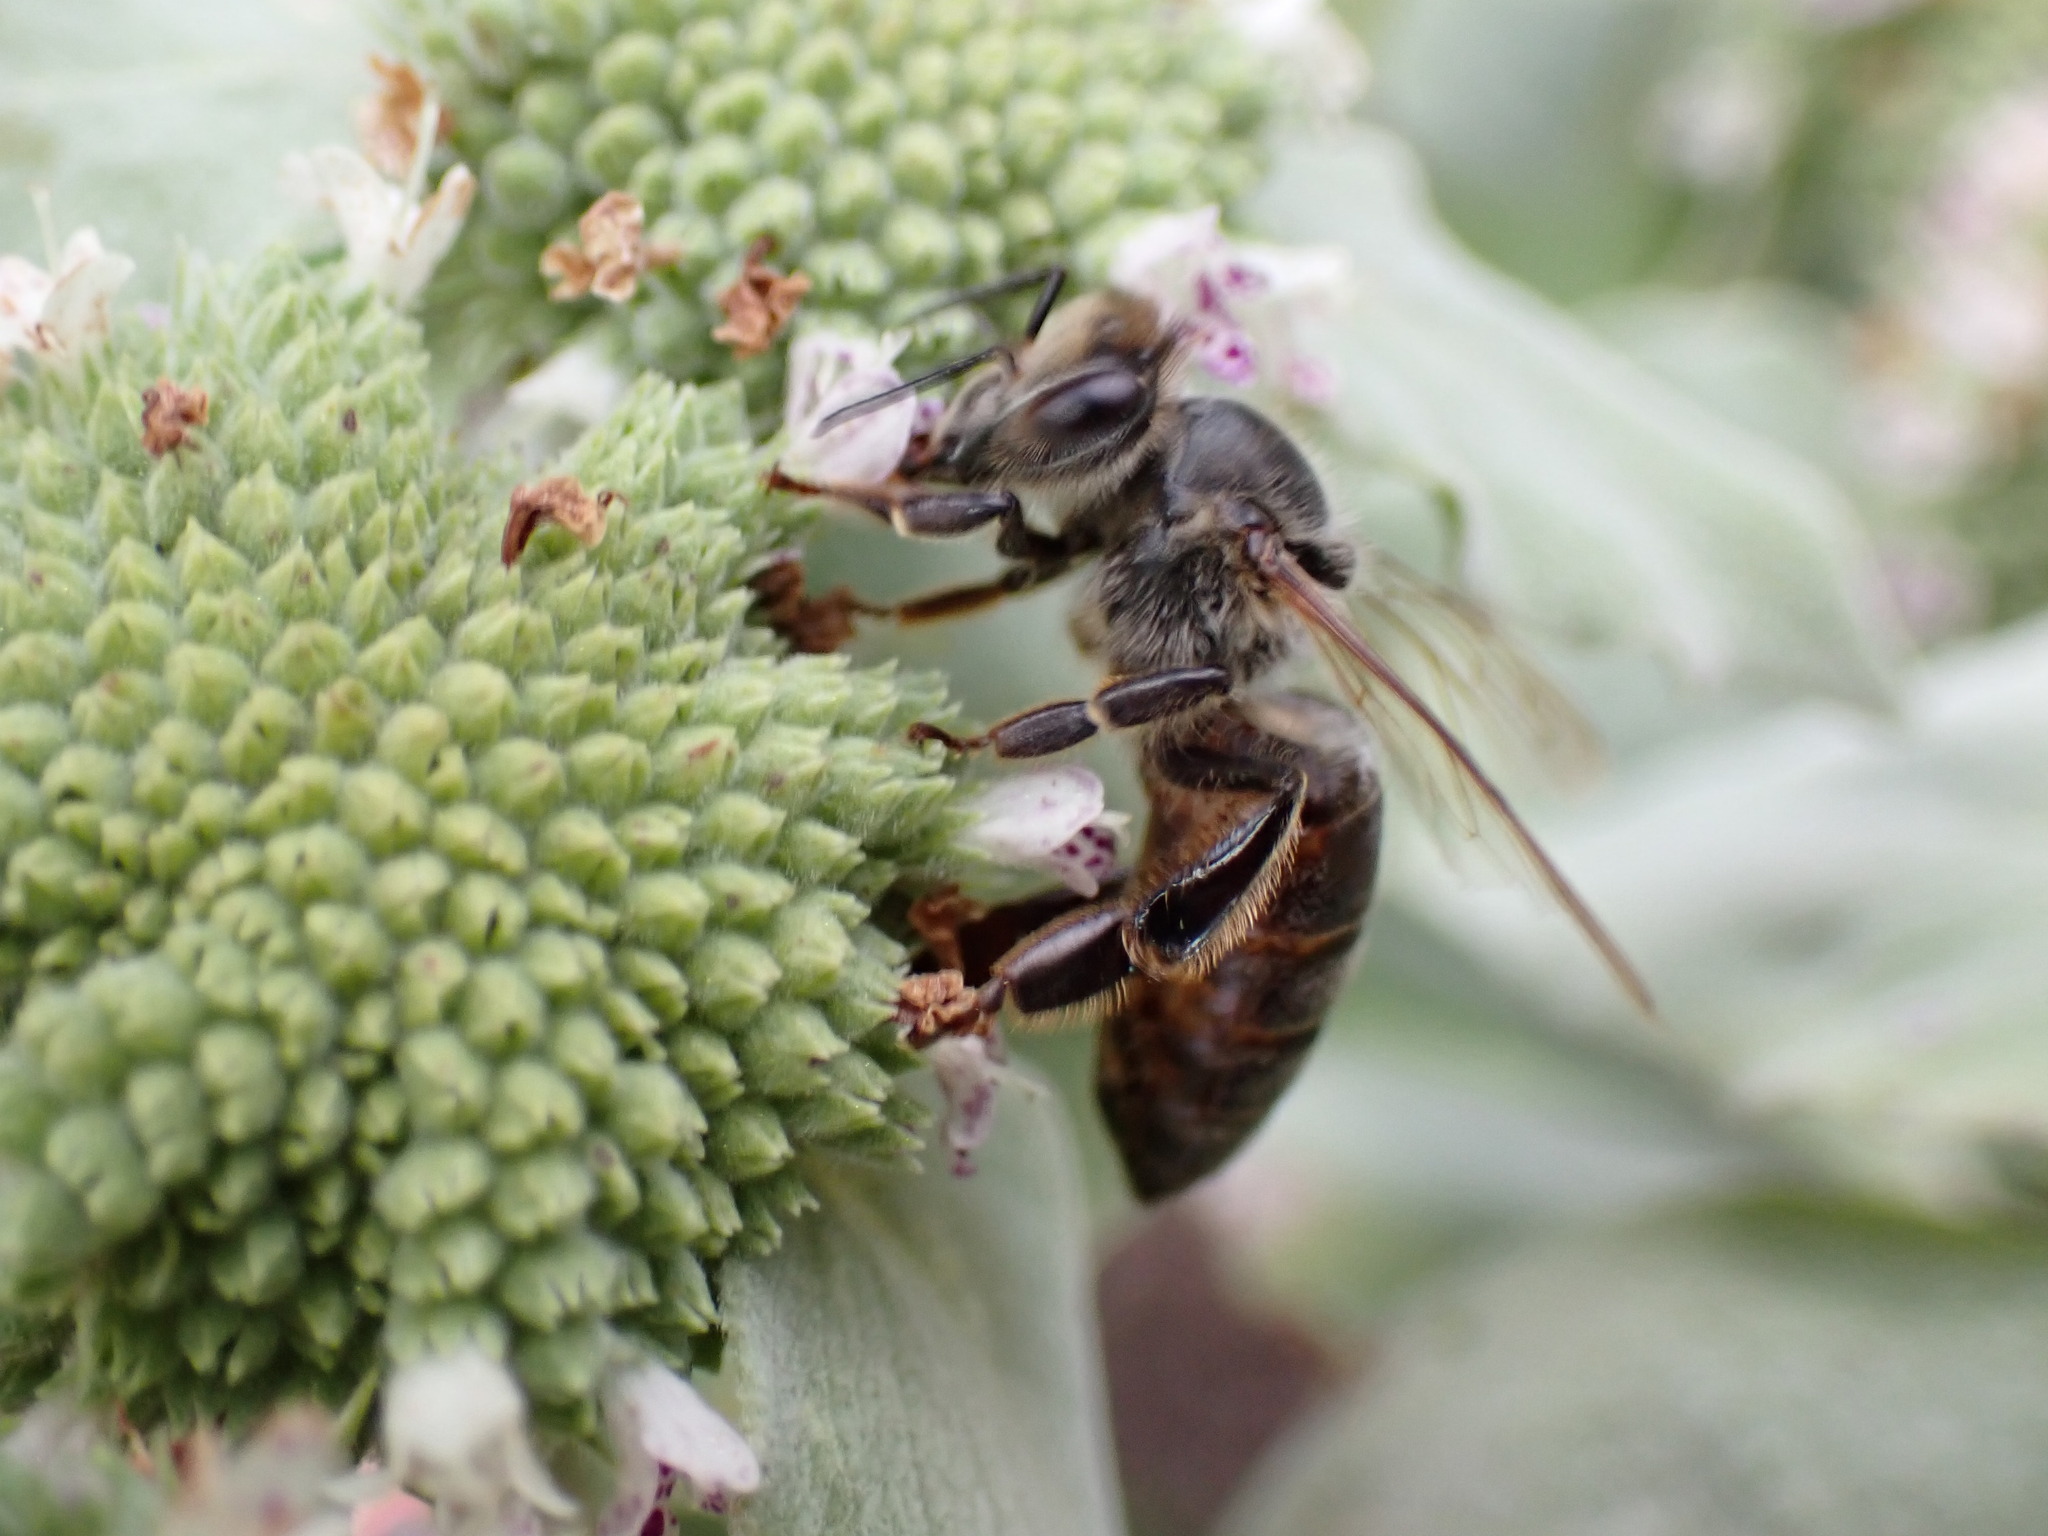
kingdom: Animalia
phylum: Arthropoda
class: Insecta
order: Hymenoptera
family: Apidae
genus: Apis
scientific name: Apis mellifera
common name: Honey bee
